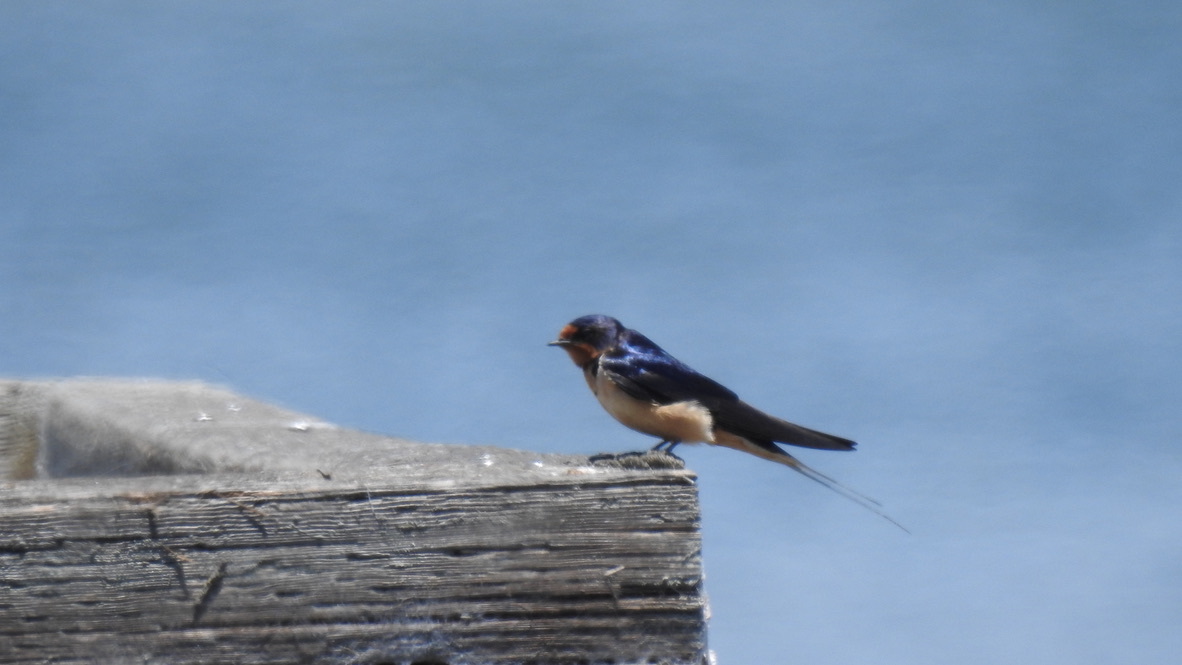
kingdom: Animalia
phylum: Chordata
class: Aves
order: Passeriformes
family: Hirundinidae
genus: Hirundo
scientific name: Hirundo rustica
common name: Barn swallow
